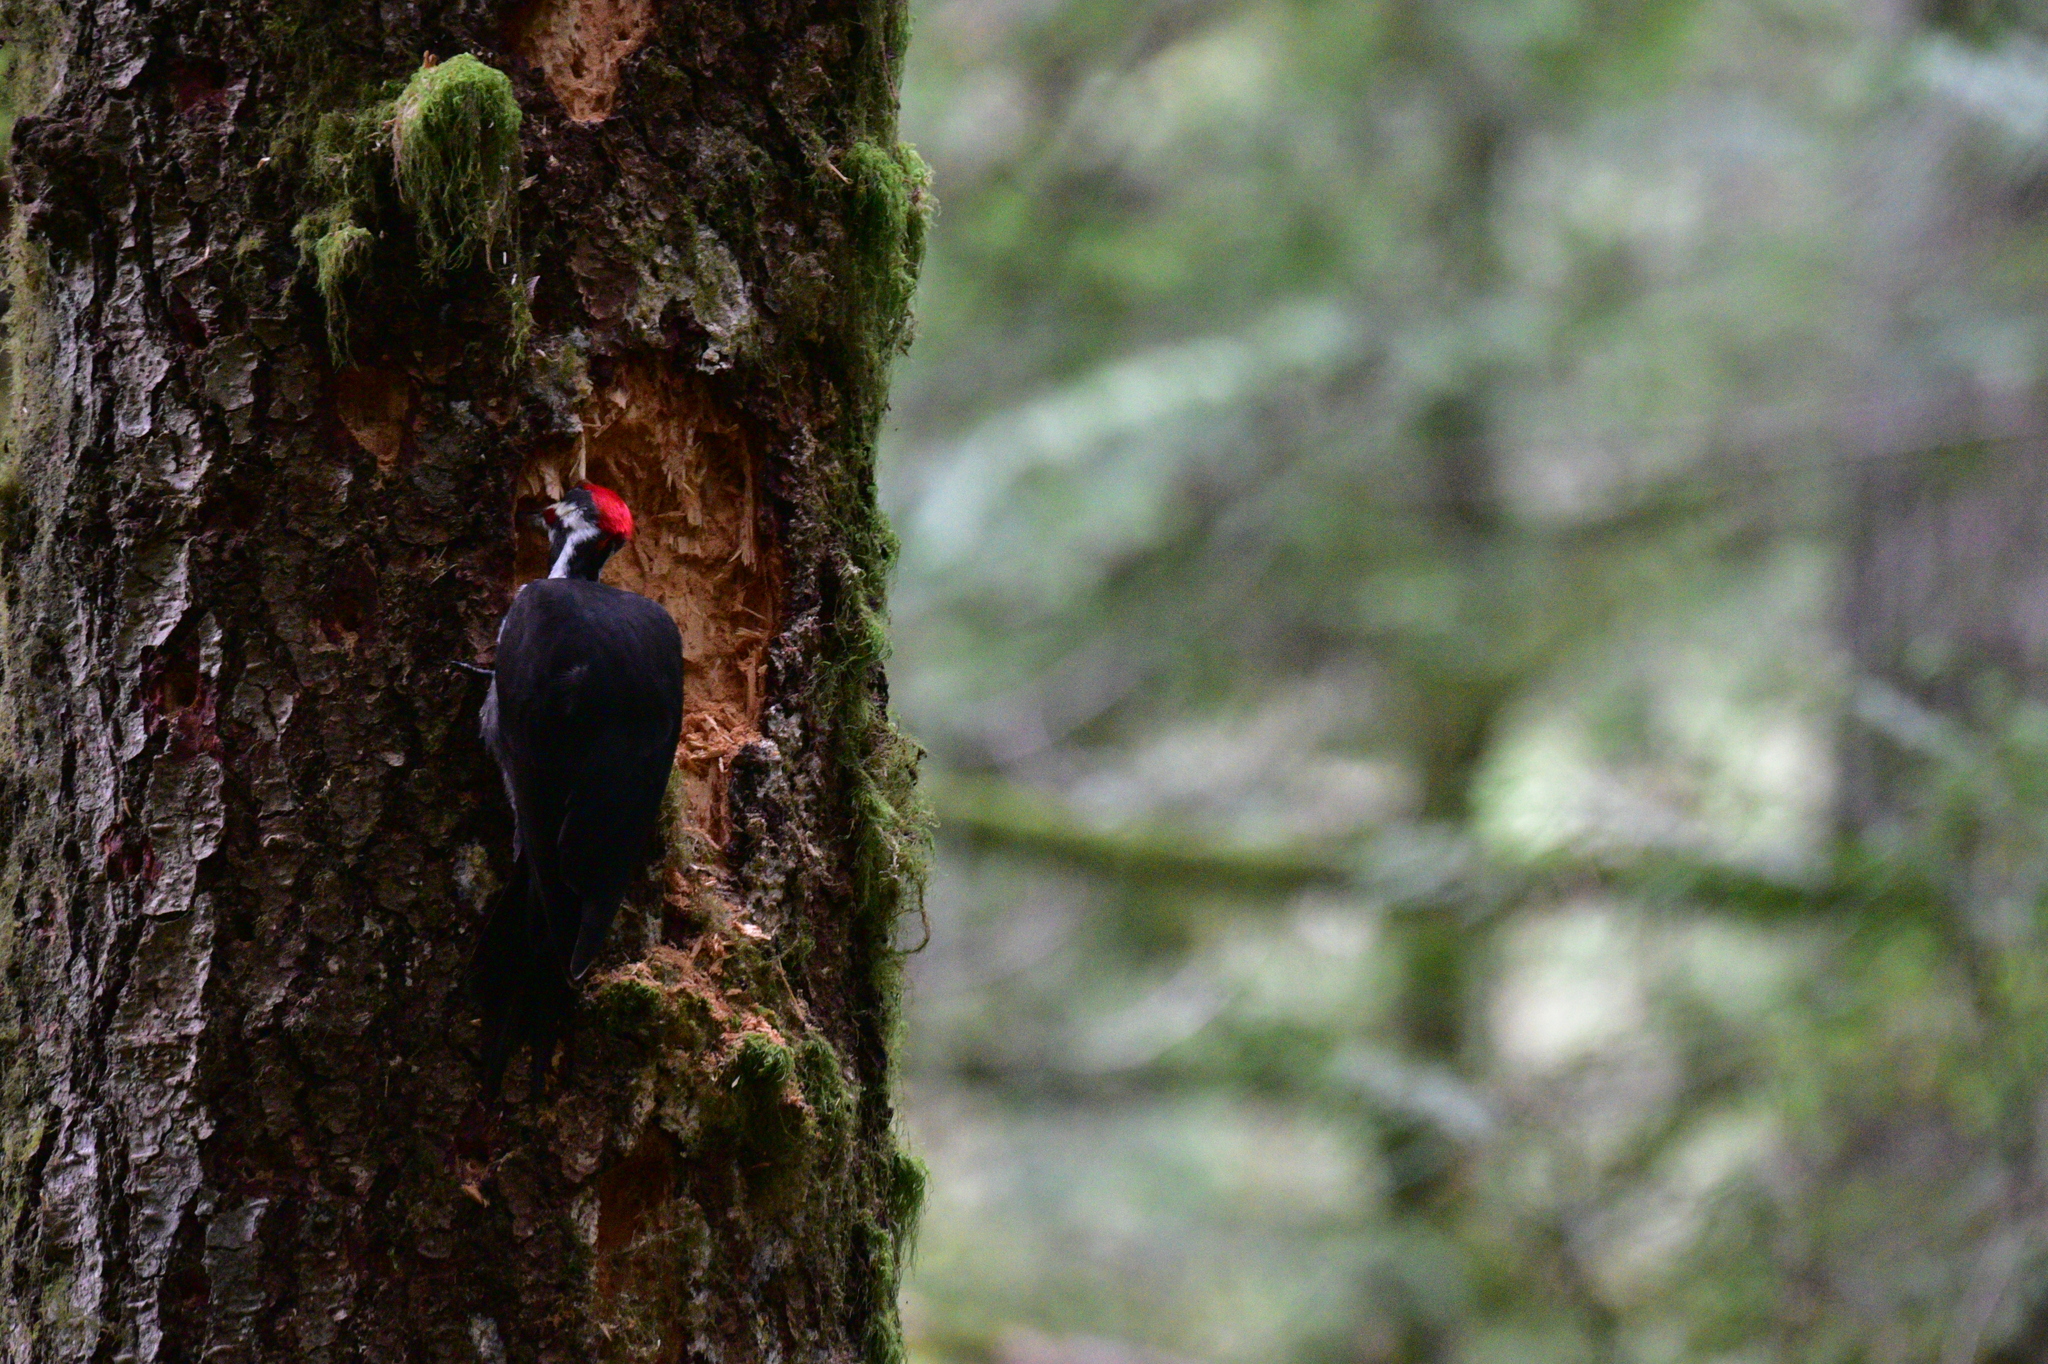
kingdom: Animalia
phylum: Chordata
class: Aves
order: Piciformes
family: Picidae
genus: Dryocopus
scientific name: Dryocopus pileatus
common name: Pileated woodpecker
